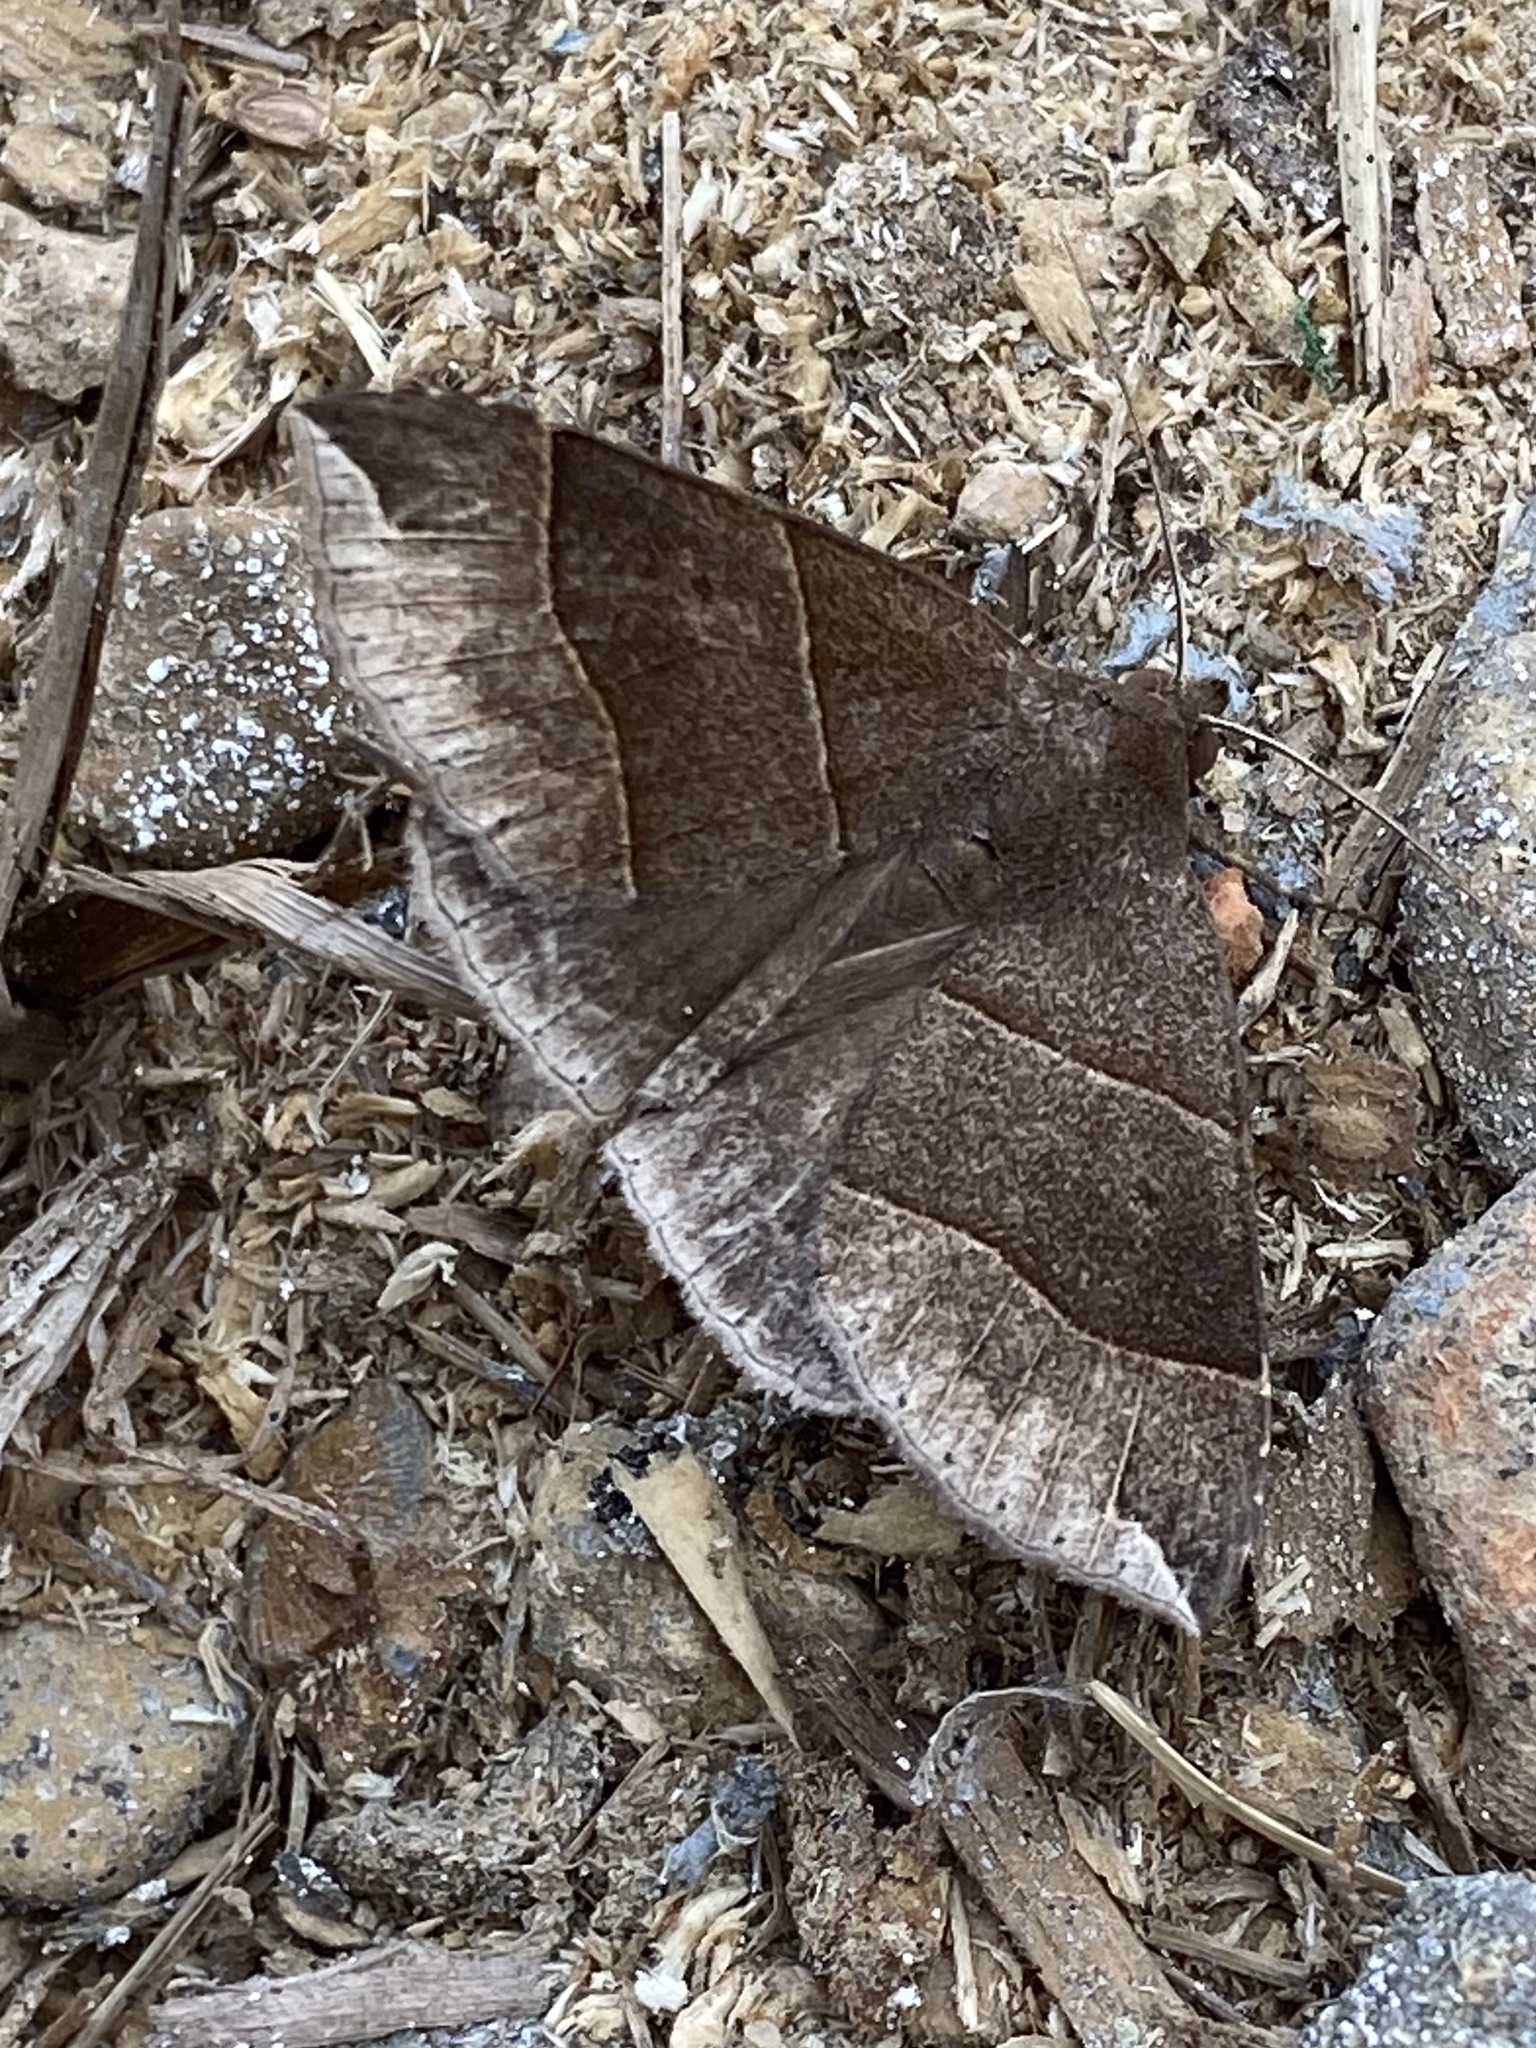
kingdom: Animalia
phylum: Arthropoda
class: Insecta
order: Lepidoptera
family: Erebidae
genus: Parallelia
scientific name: Parallelia bistriaris
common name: Maple looper moth
